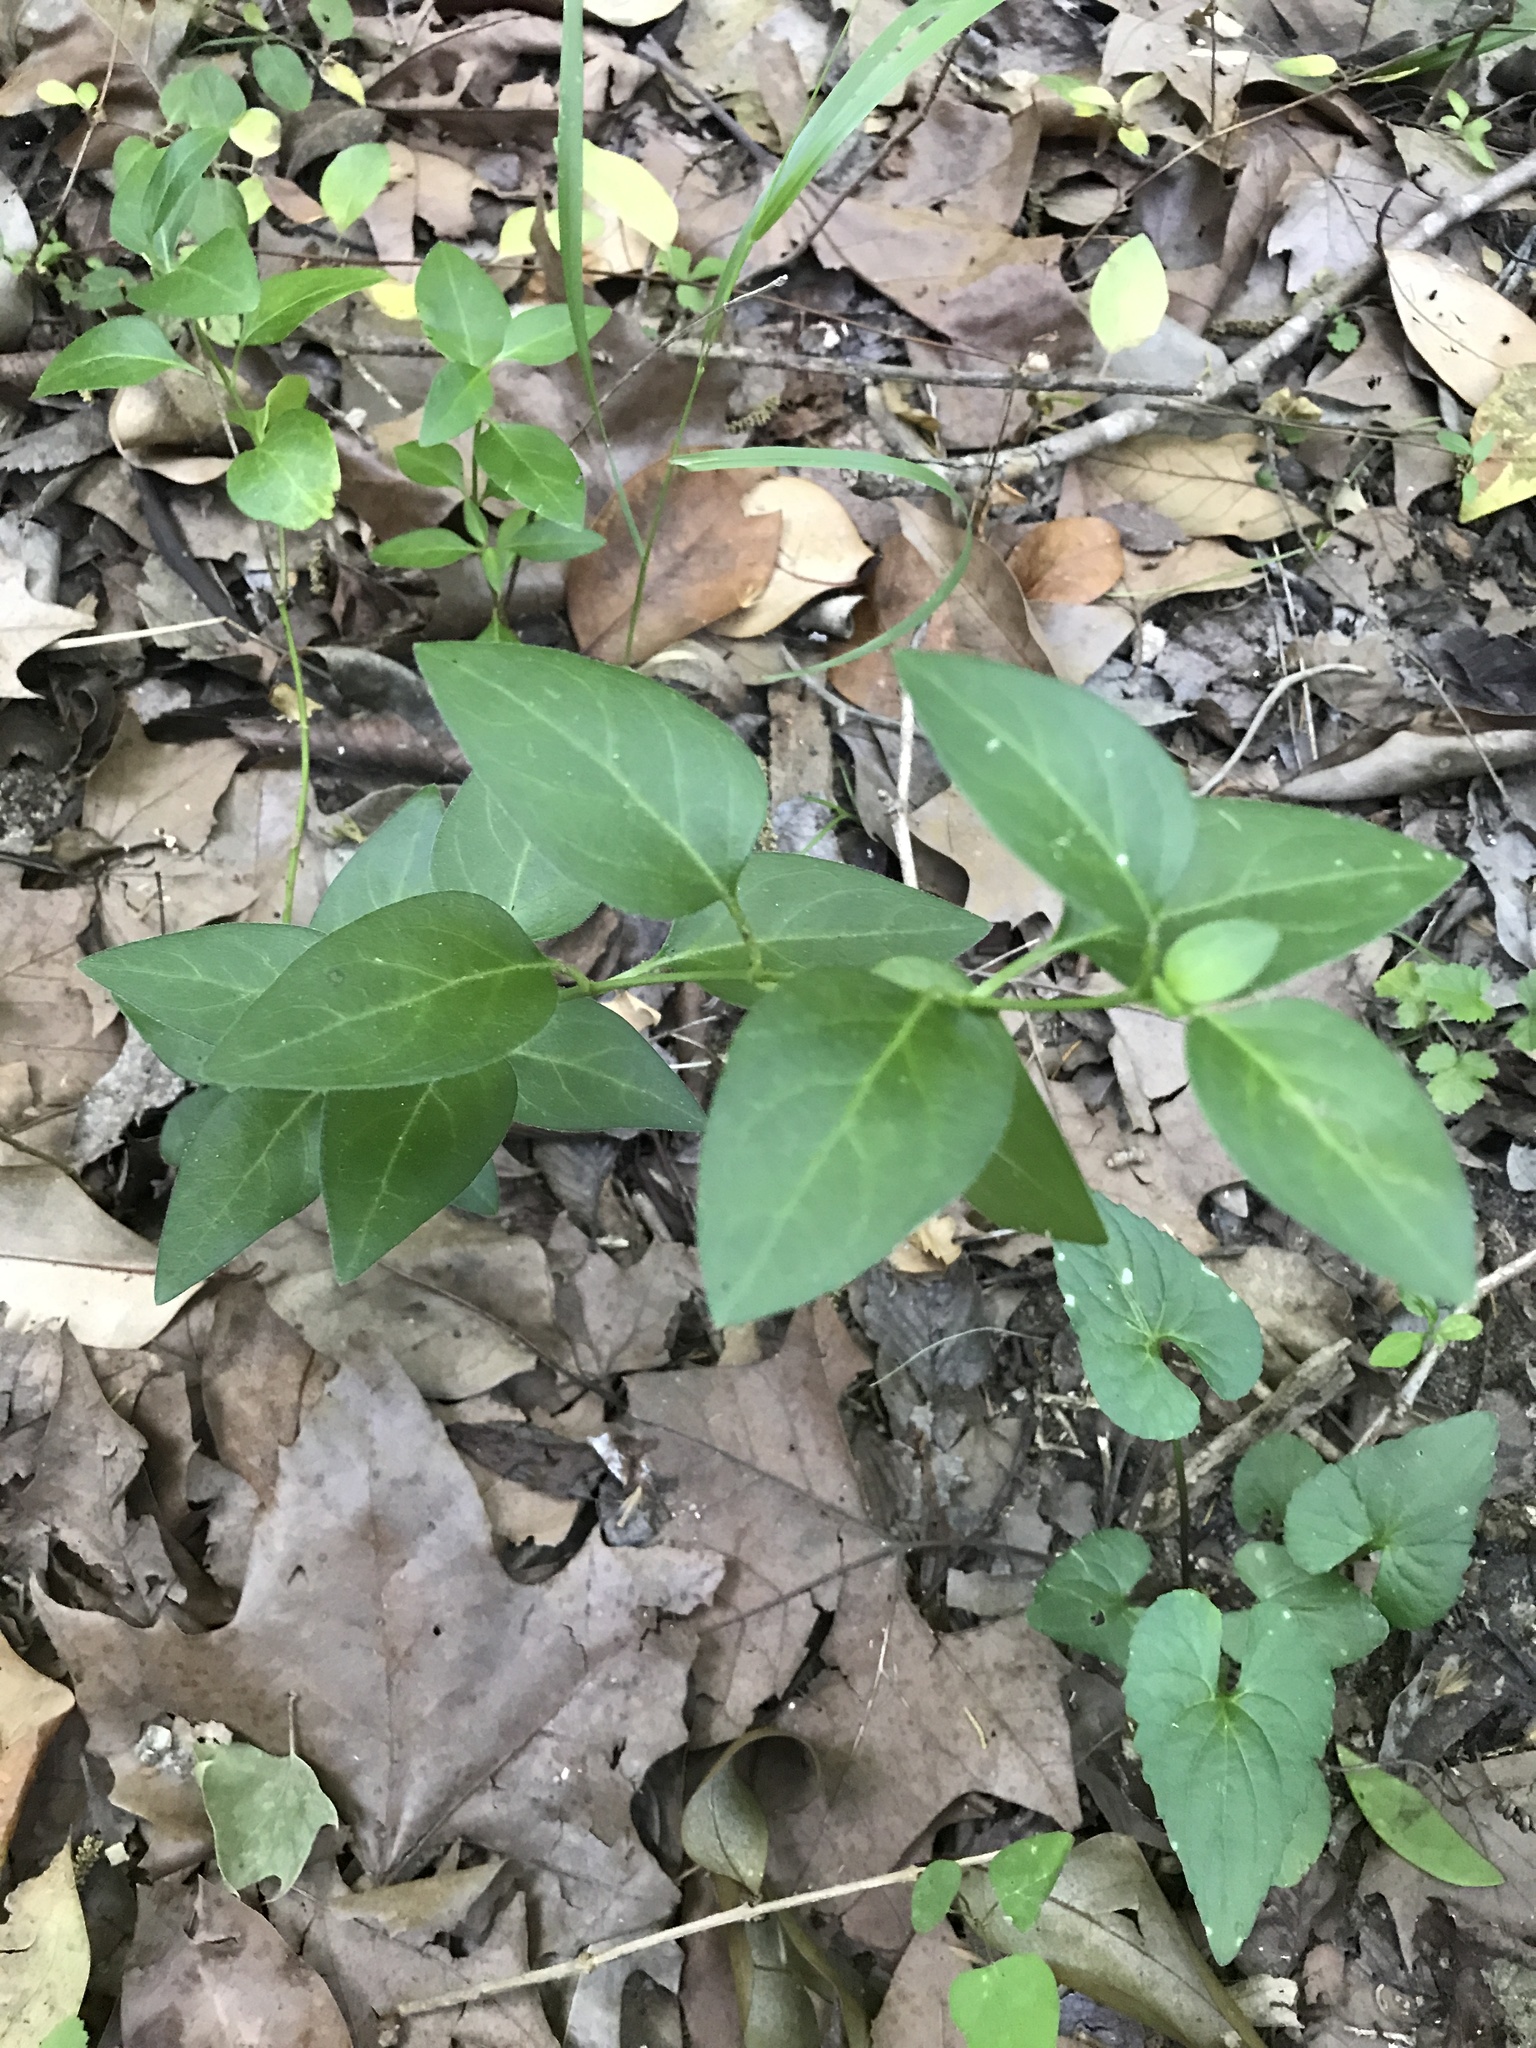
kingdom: Plantae
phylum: Tracheophyta
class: Magnoliopsida
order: Gentianales
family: Apocynaceae
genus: Vinca
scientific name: Vinca major
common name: Greater periwinkle
